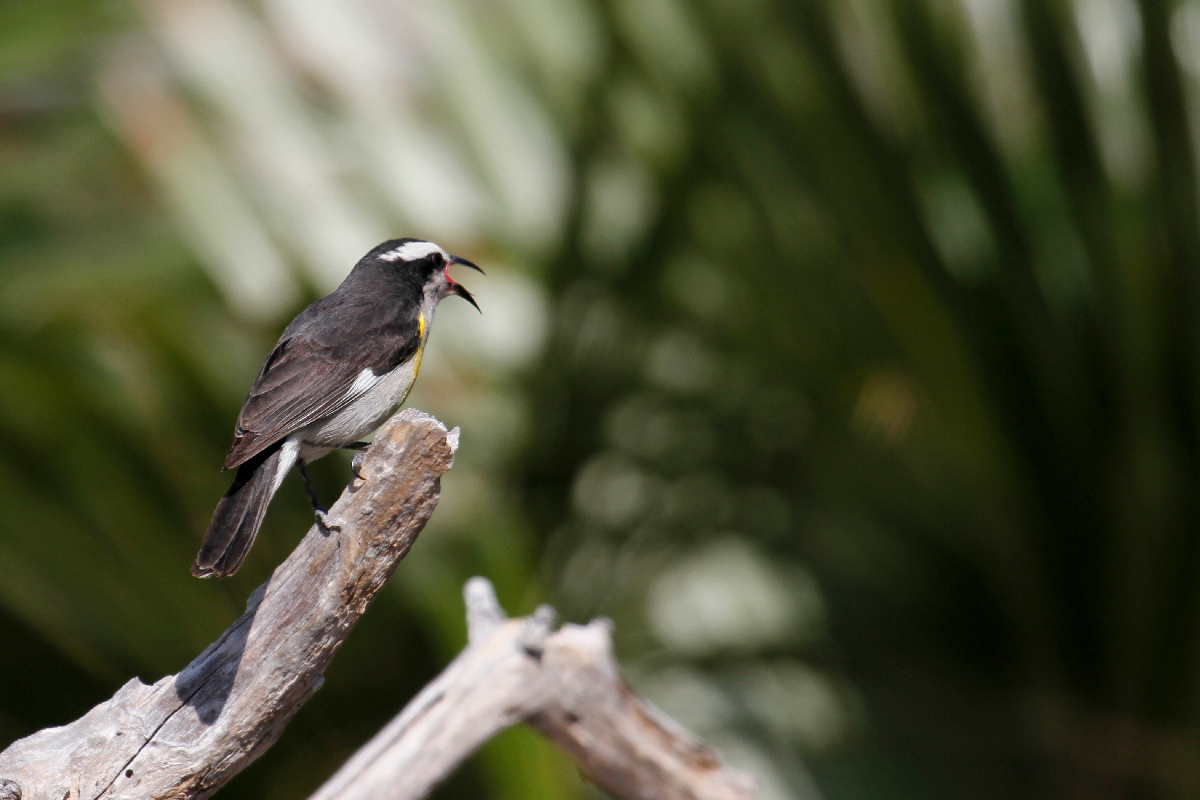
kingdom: Animalia
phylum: Chordata
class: Aves
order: Passeriformes
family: Thraupidae
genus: Coereba
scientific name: Coereba flaveola
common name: Bananaquit
